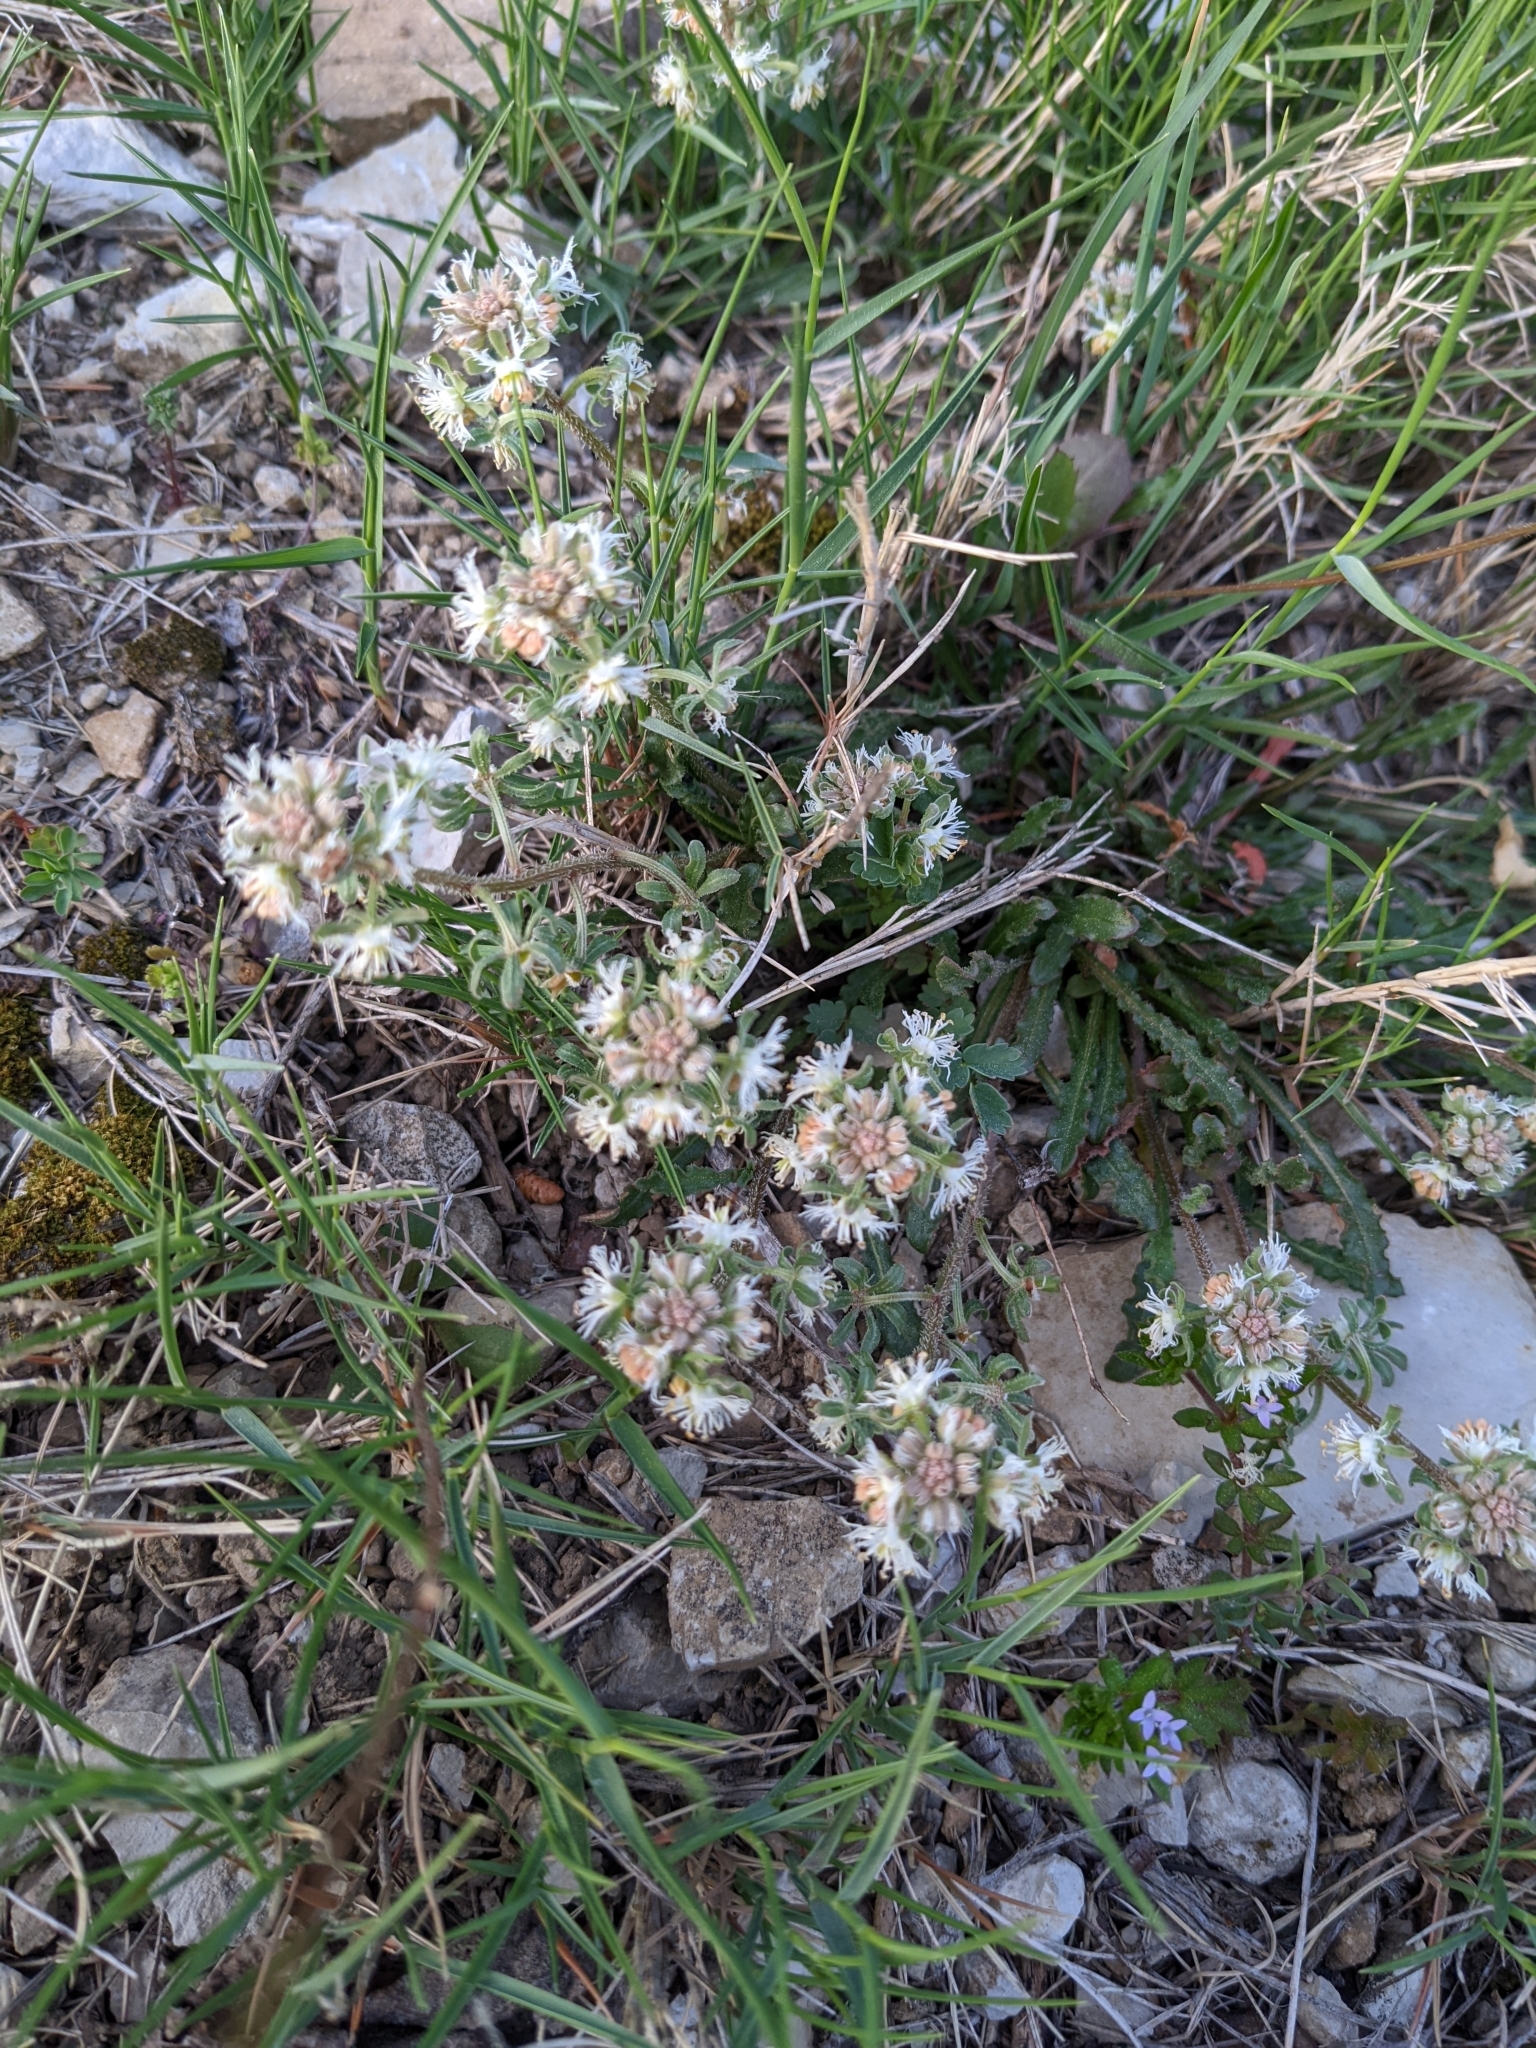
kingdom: Plantae
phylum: Tracheophyta
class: Magnoliopsida
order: Brassicales
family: Resedaceae
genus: Reseda
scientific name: Reseda phyteuma
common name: Corn mignonette
